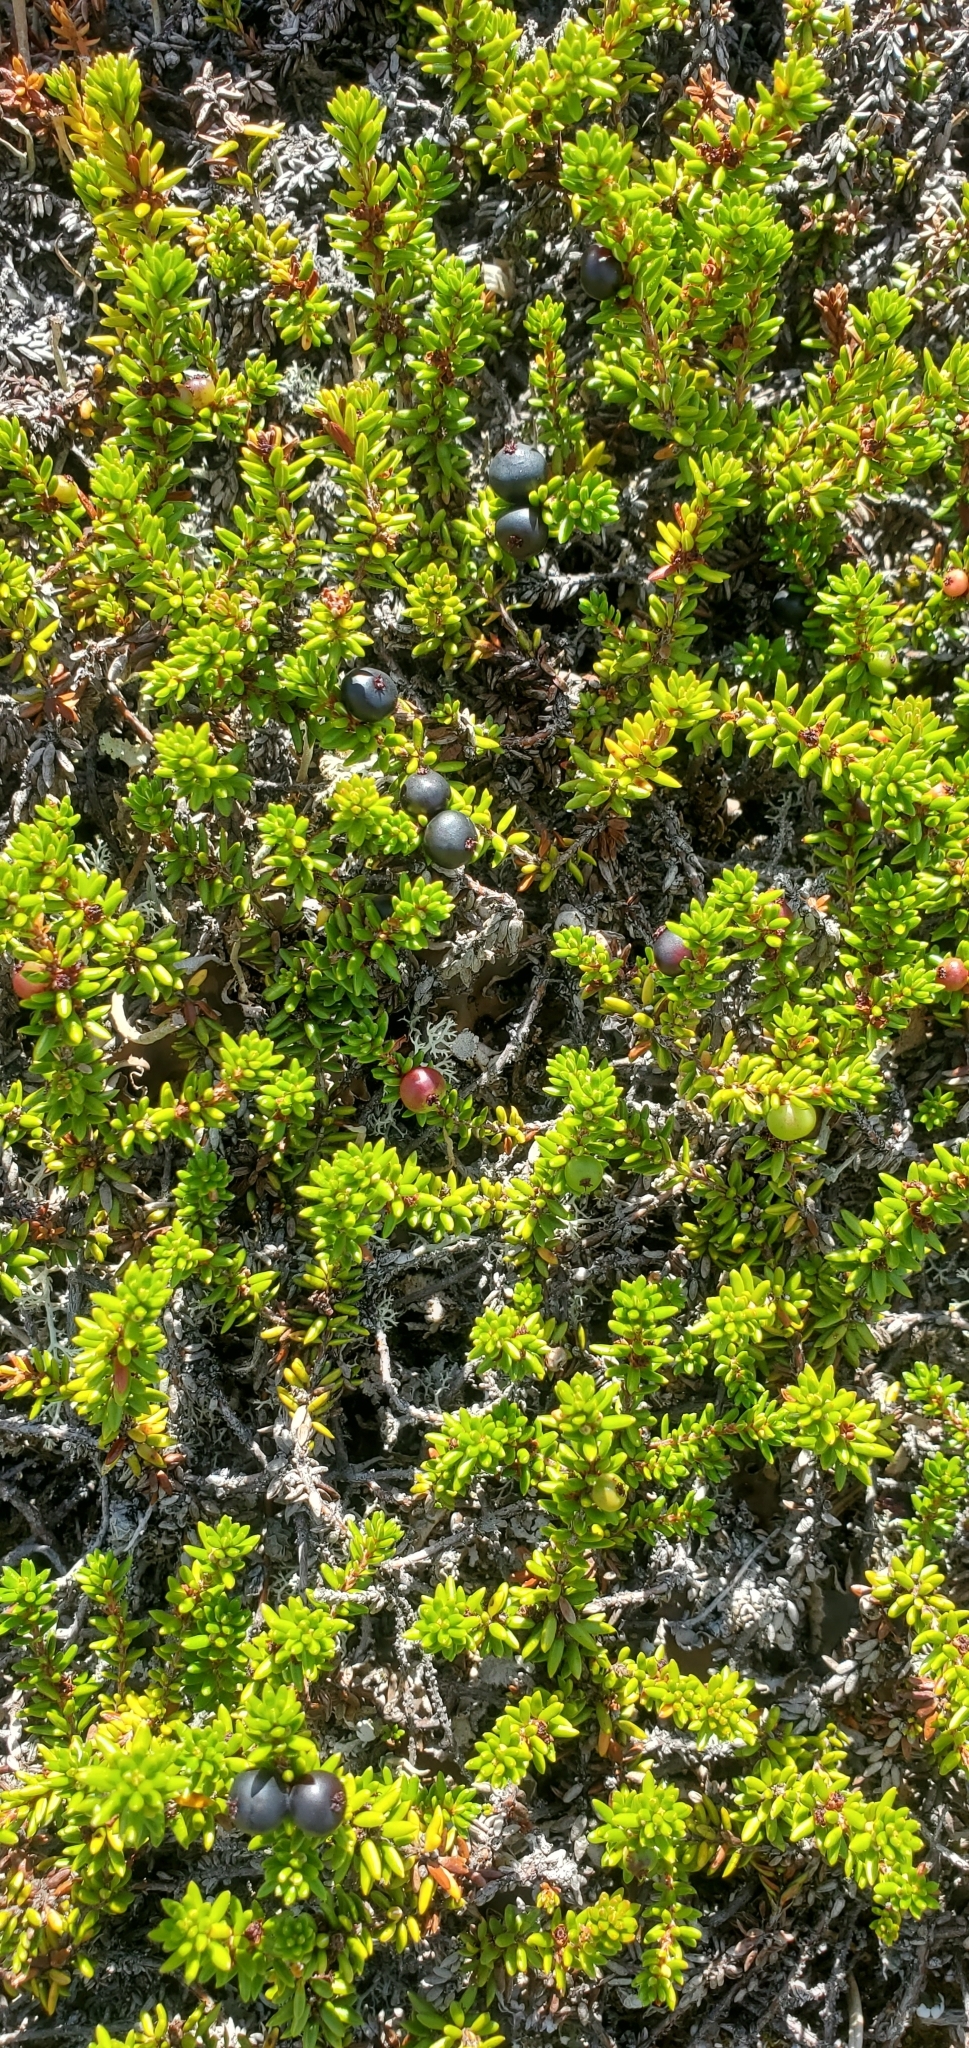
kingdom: Plantae
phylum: Tracheophyta
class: Magnoliopsida
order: Ericales
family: Ericaceae
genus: Empetrum
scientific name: Empetrum nigrum
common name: Black crowberry
